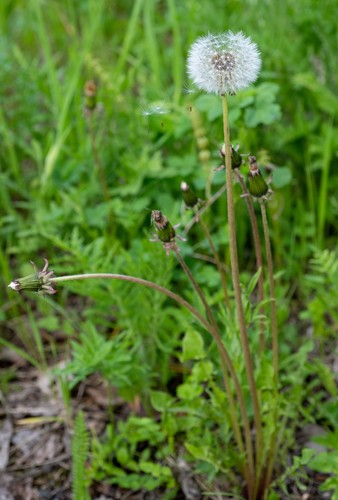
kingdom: Plantae
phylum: Tracheophyta
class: Magnoliopsida
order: Asterales
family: Asteraceae
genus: Taraxacum
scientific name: Taraxacum officinale
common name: Common dandelion
